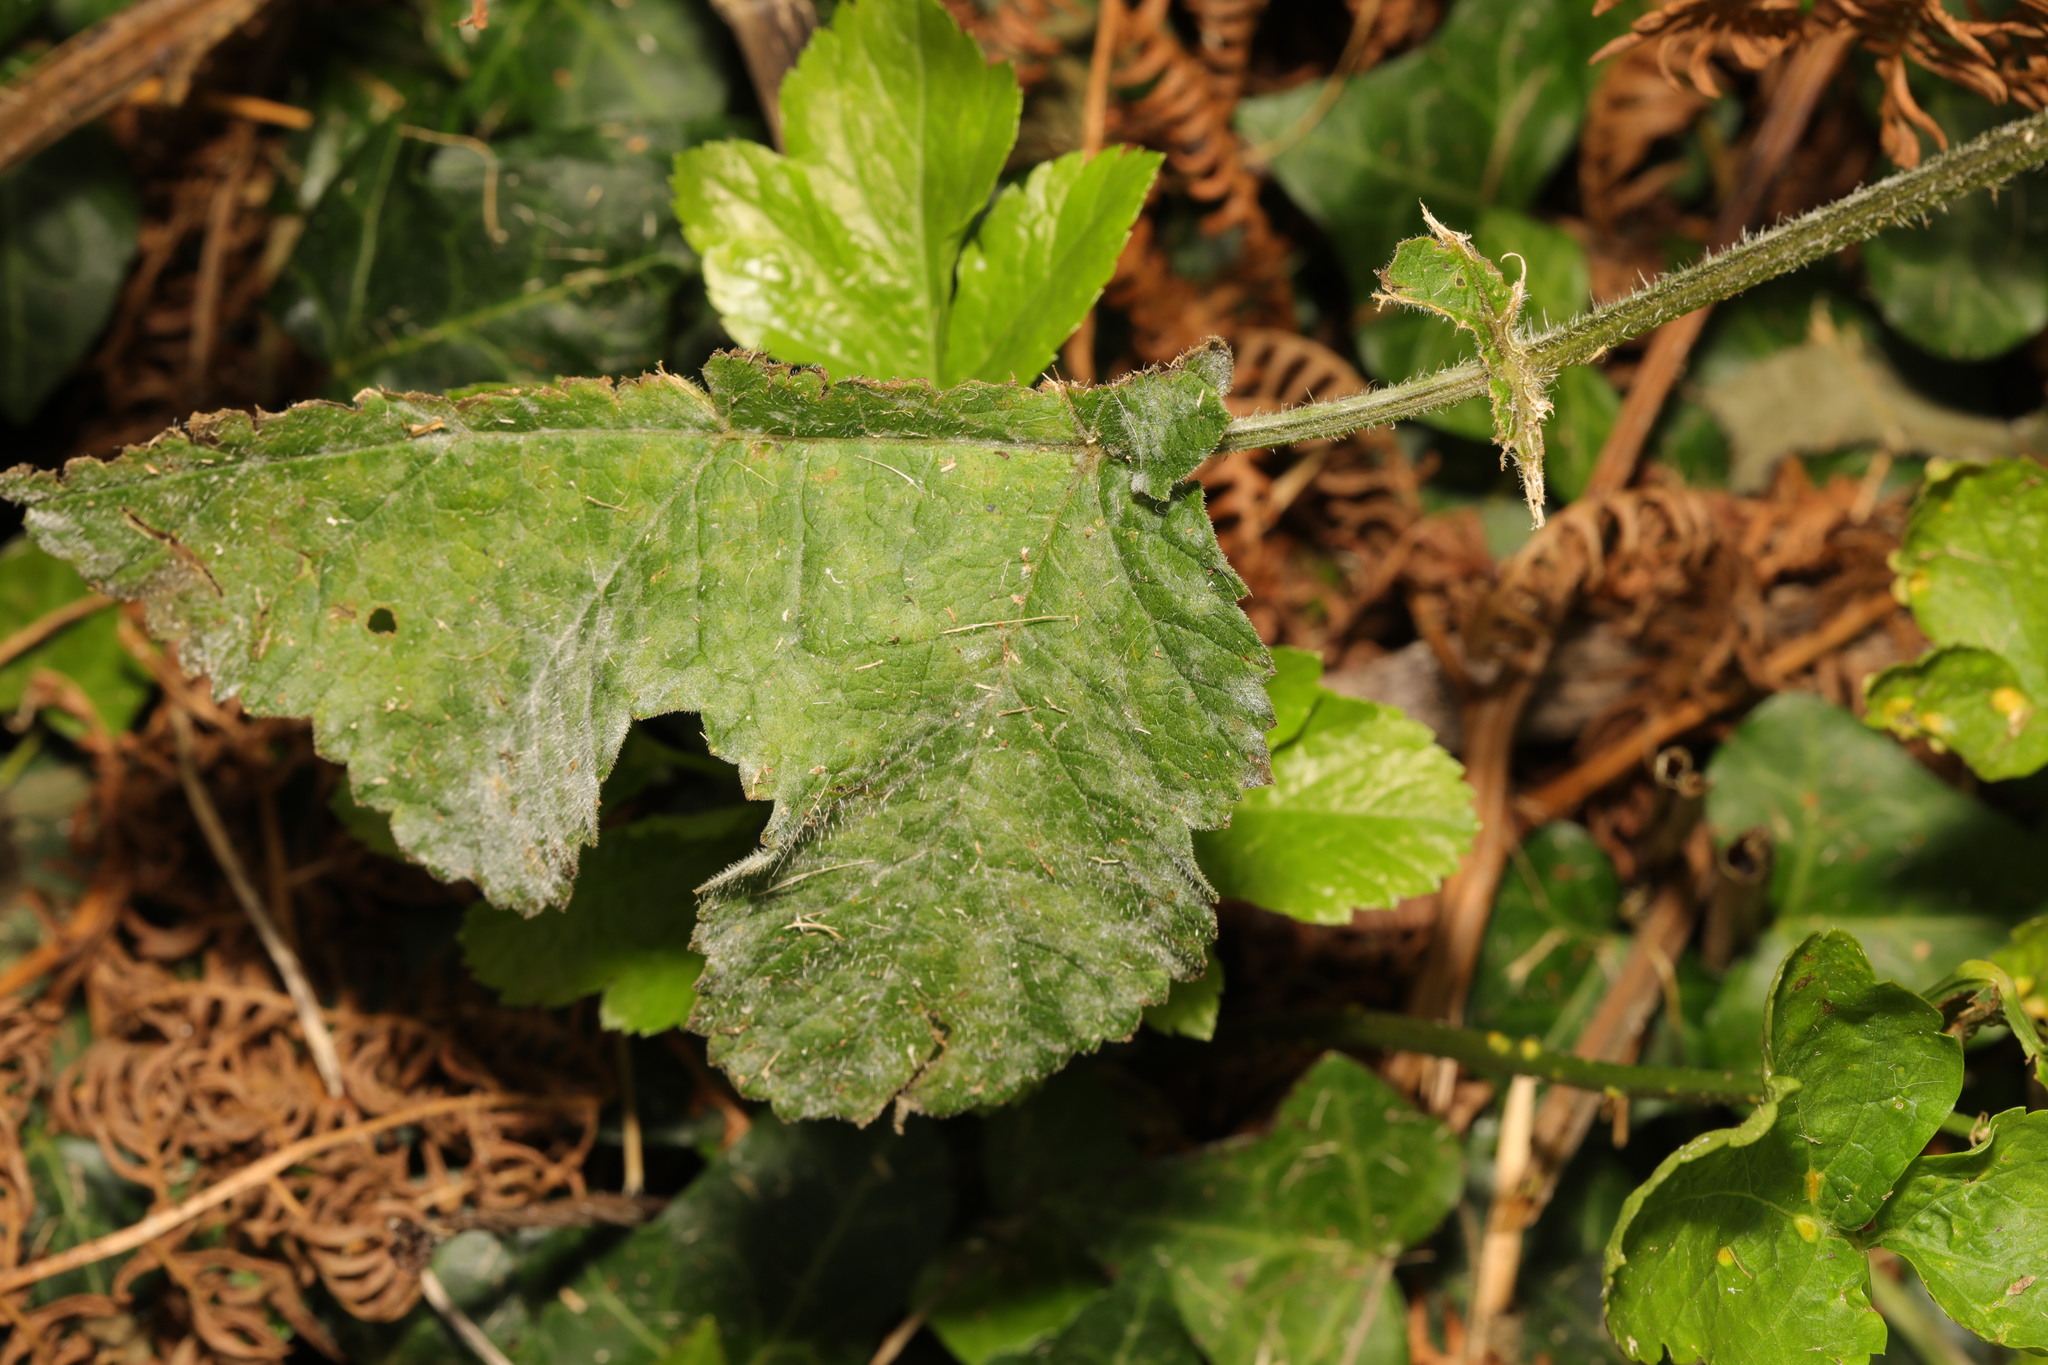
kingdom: Fungi
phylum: Ascomycota
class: Leotiomycetes
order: Helotiales
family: Erysiphaceae
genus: Erysiphe
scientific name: Erysiphe heraclei
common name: Umbellifer mildew
